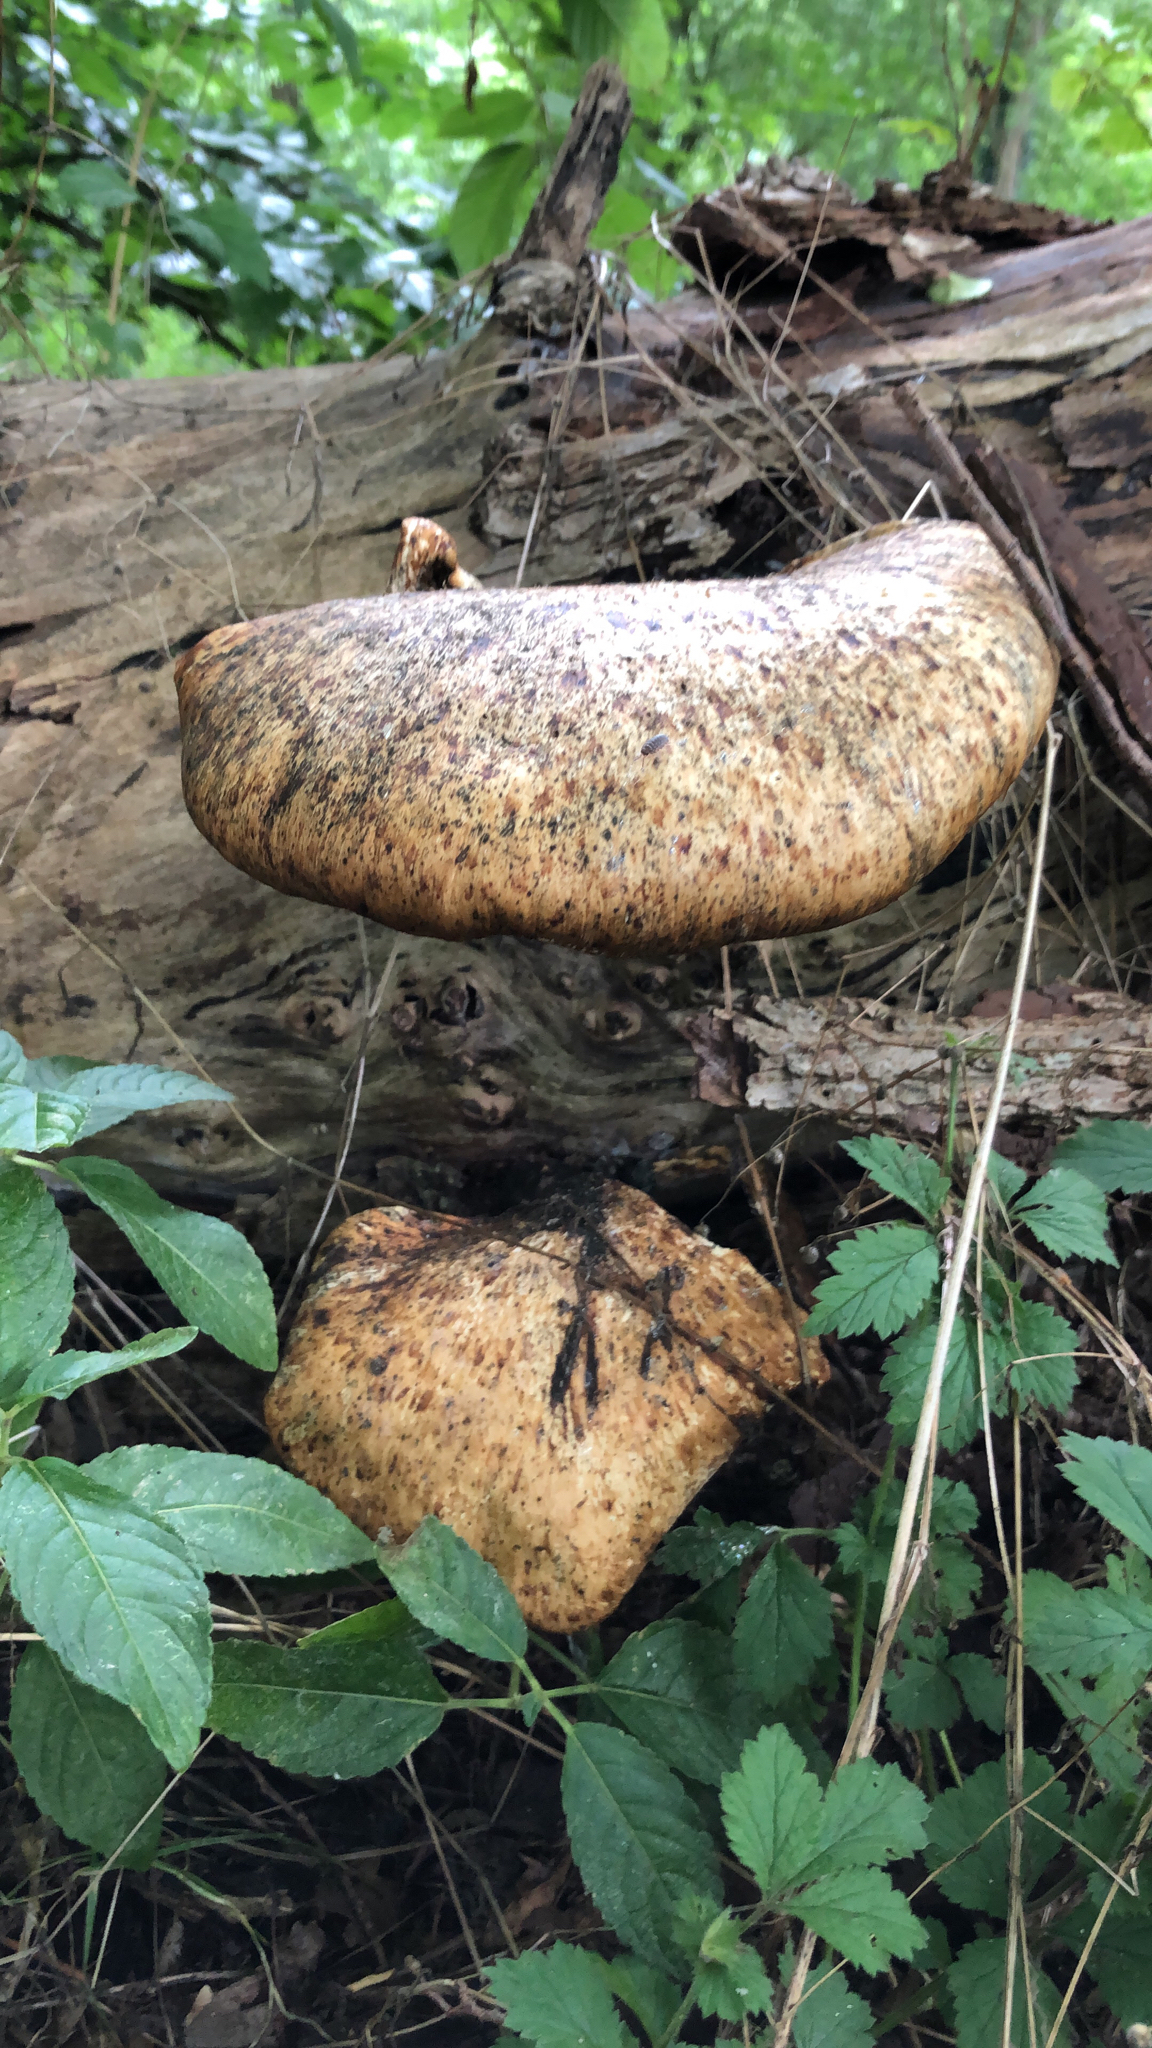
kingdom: Fungi
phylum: Basidiomycota
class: Agaricomycetes
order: Polyporales
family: Polyporaceae
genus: Cerioporus
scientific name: Cerioporus squamosus
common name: Dryad's saddle
